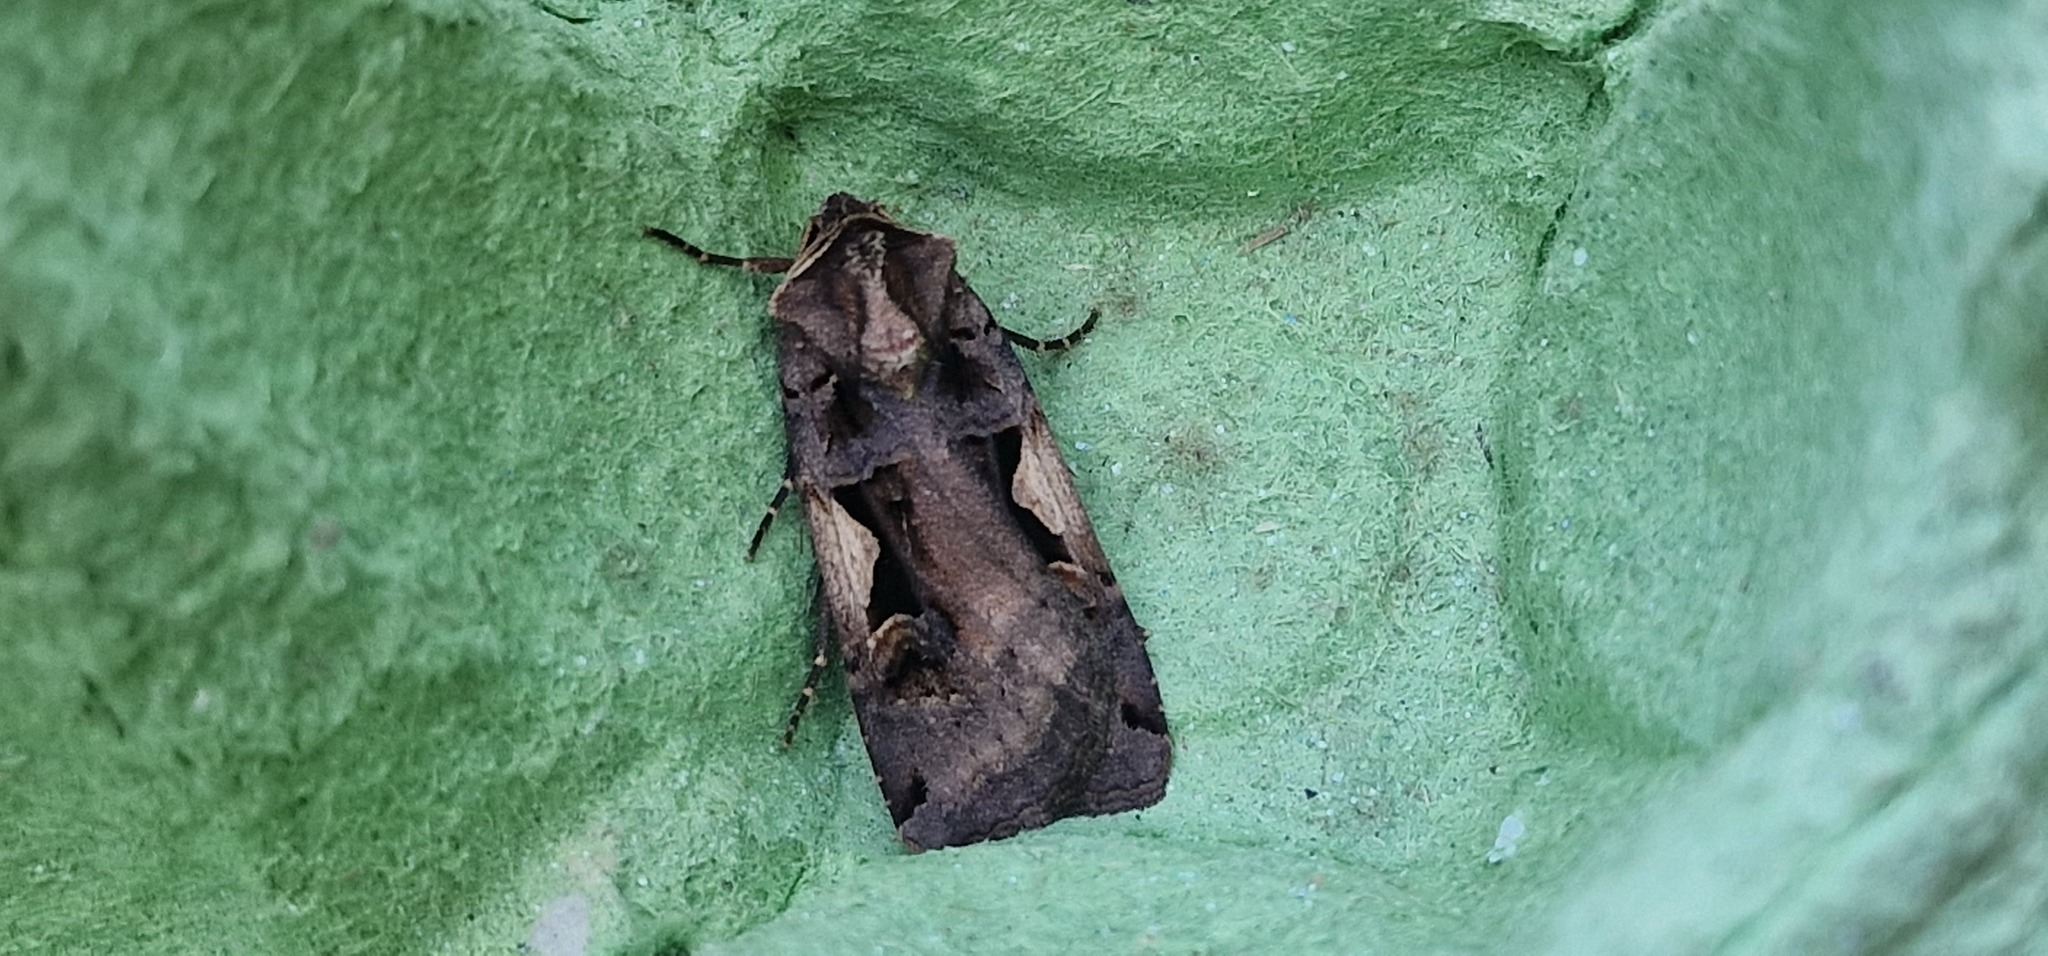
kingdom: Animalia
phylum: Arthropoda
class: Insecta
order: Lepidoptera
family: Noctuidae
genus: Xestia
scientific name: Xestia c-nigrum
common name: Setaceous hebrew character
